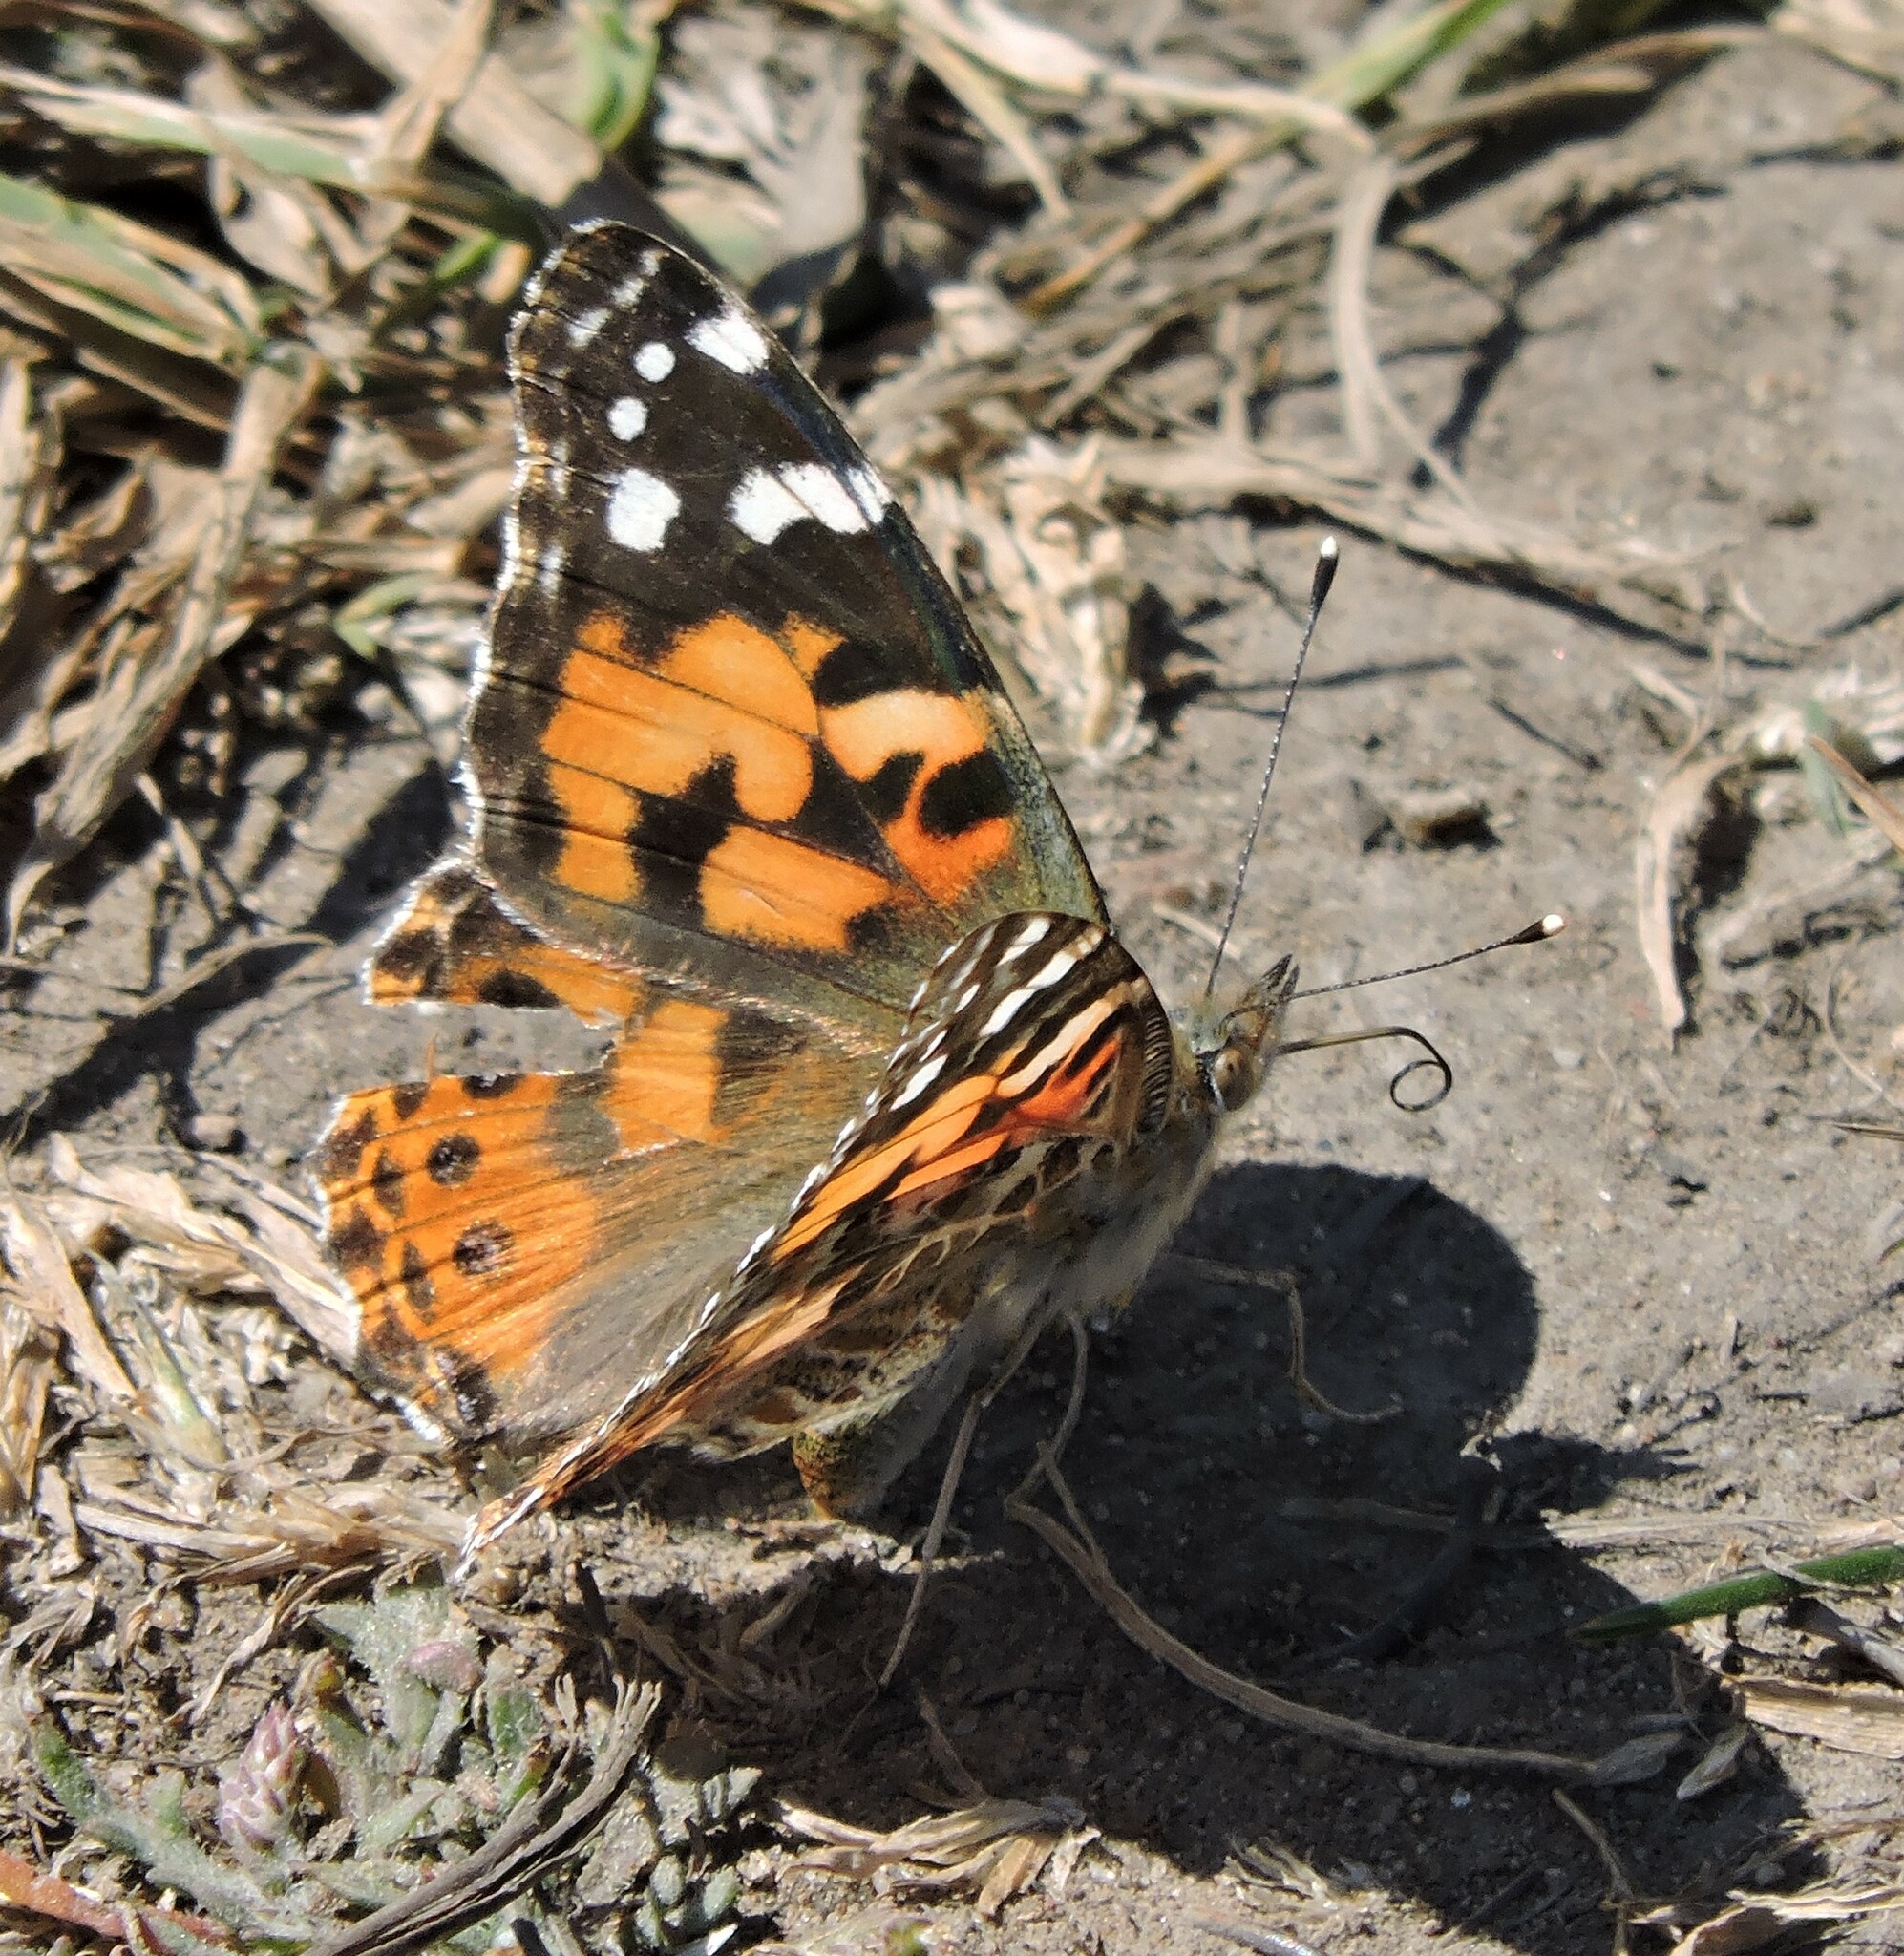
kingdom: Animalia
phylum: Arthropoda
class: Insecta
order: Lepidoptera
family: Nymphalidae
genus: Vanessa
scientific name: Vanessa cardui
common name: Painted lady
